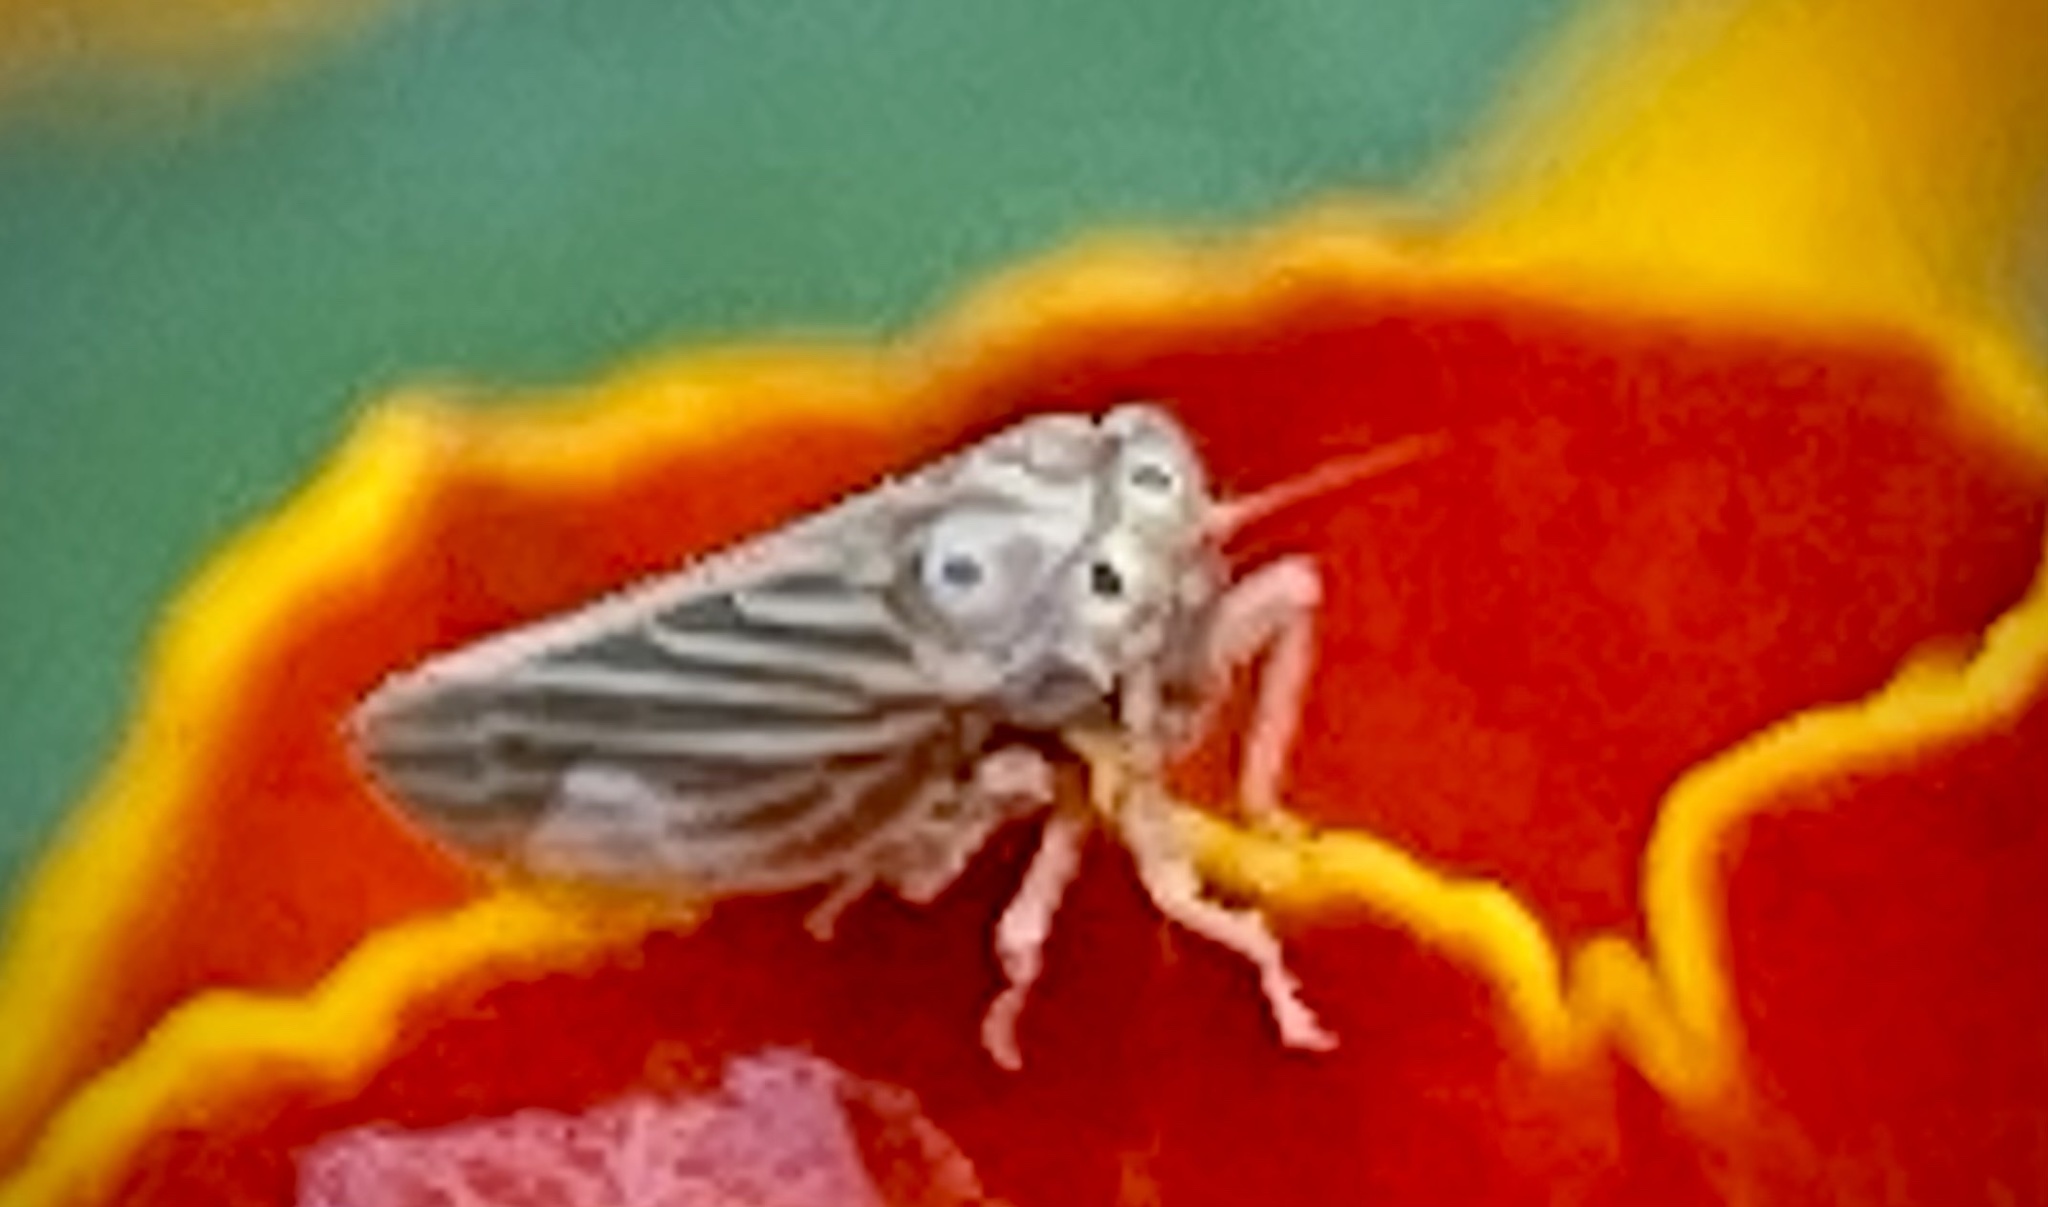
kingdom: Animalia
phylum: Arthropoda
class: Insecta
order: Hemiptera
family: Cicadellidae
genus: Agallia
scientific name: Agallia constricta
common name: The constricted leafhopper
